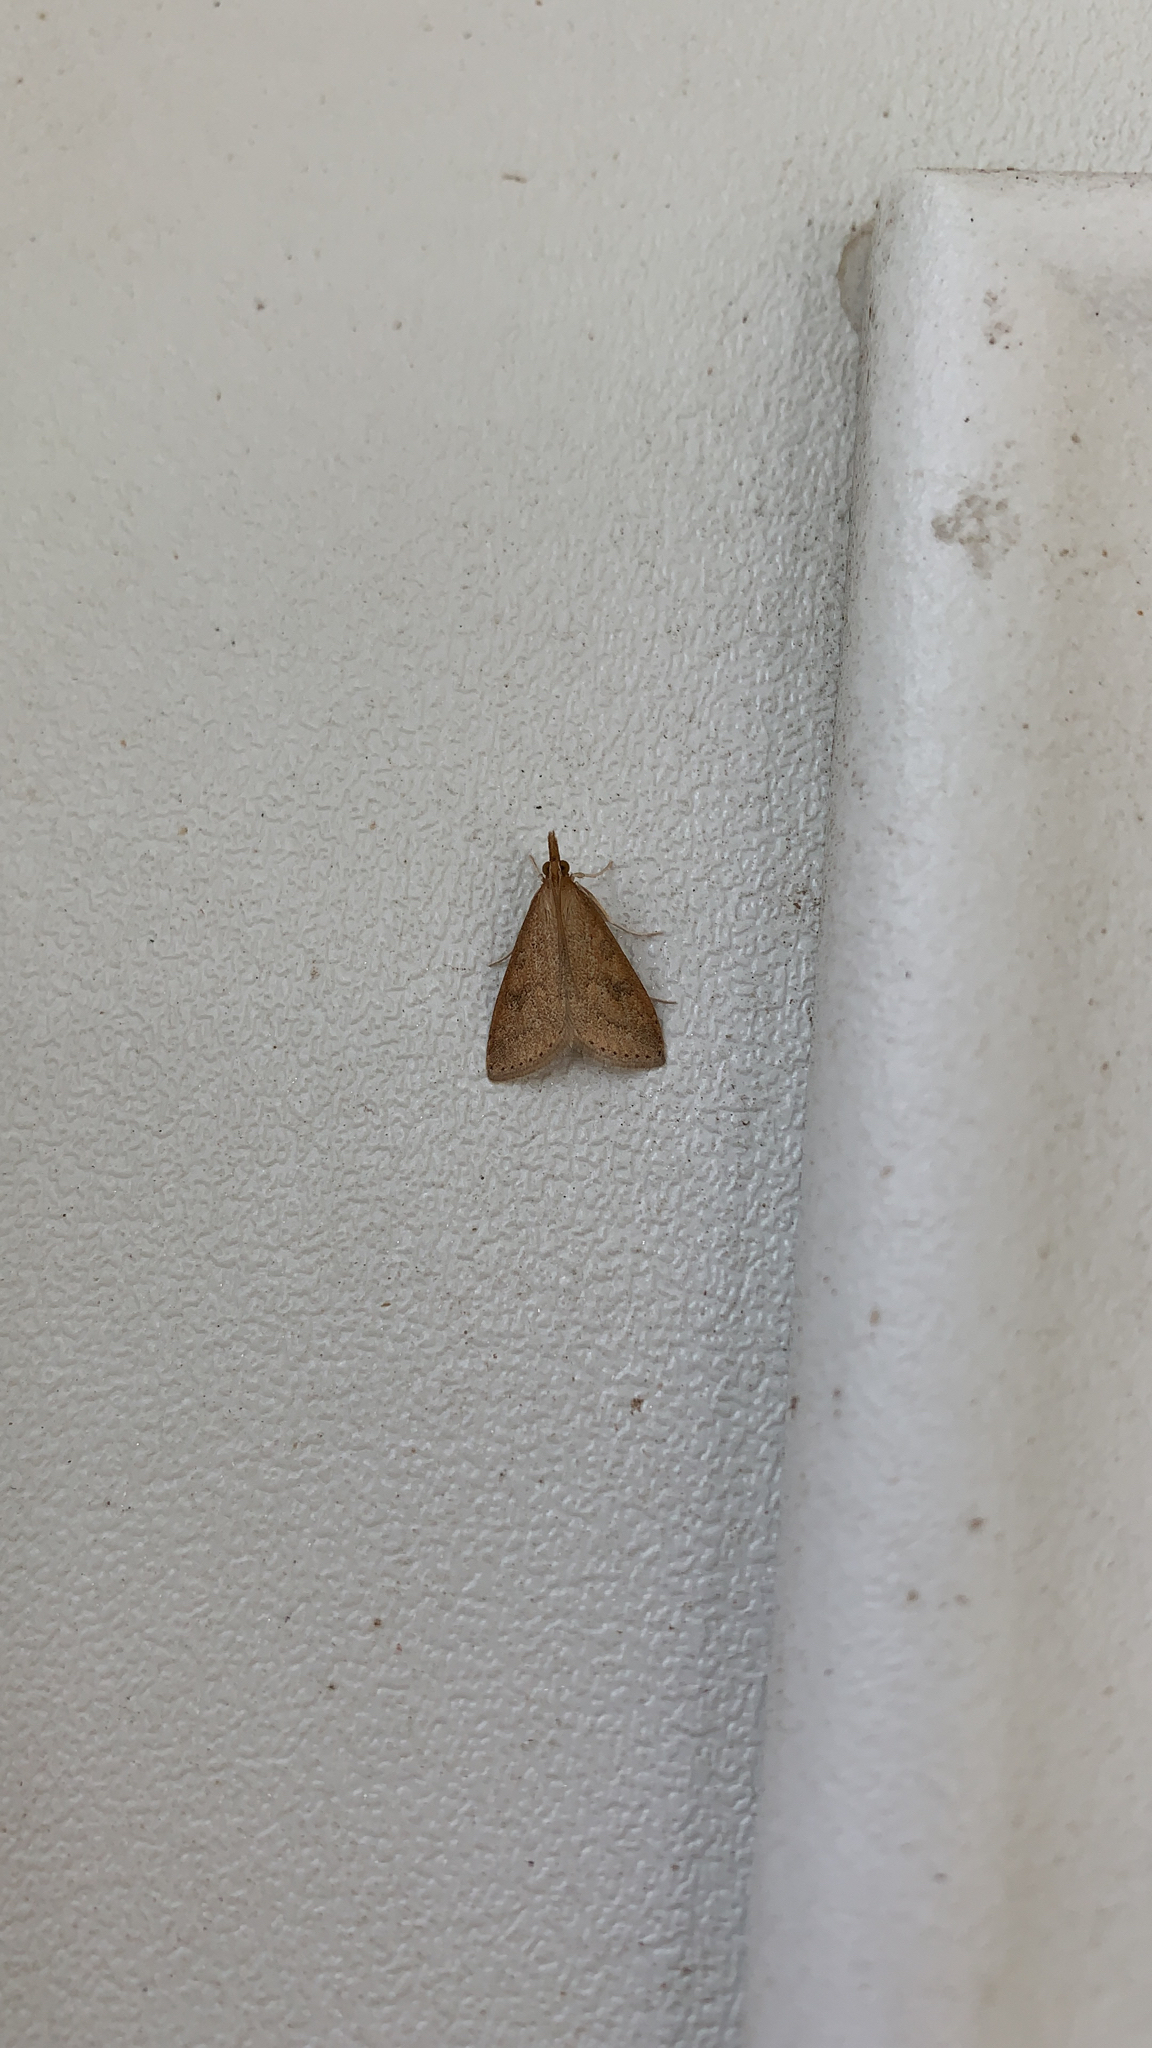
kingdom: Animalia
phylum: Arthropoda
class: Insecta
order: Lepidoptera
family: Crambidae
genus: Udea
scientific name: Udea rubigalis
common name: Celery leaftier moth
